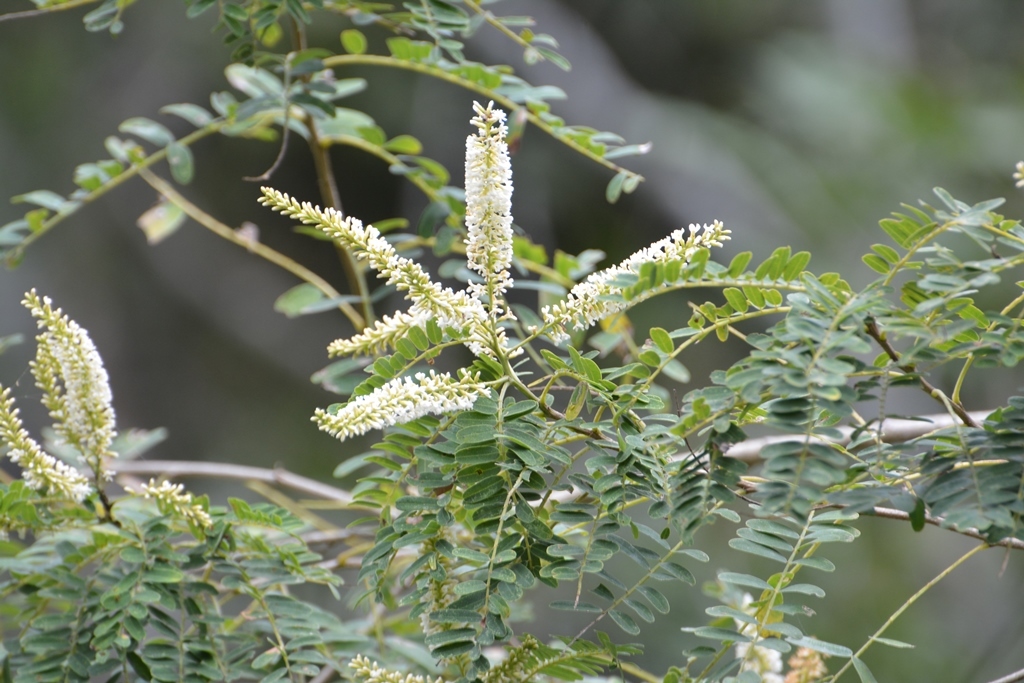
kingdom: Plantae
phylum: Tracheophyta
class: Magnoliopsida
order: Fabales
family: Fabaceae
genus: Eysenhardtia
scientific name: Eysenhardtia adenostylis
